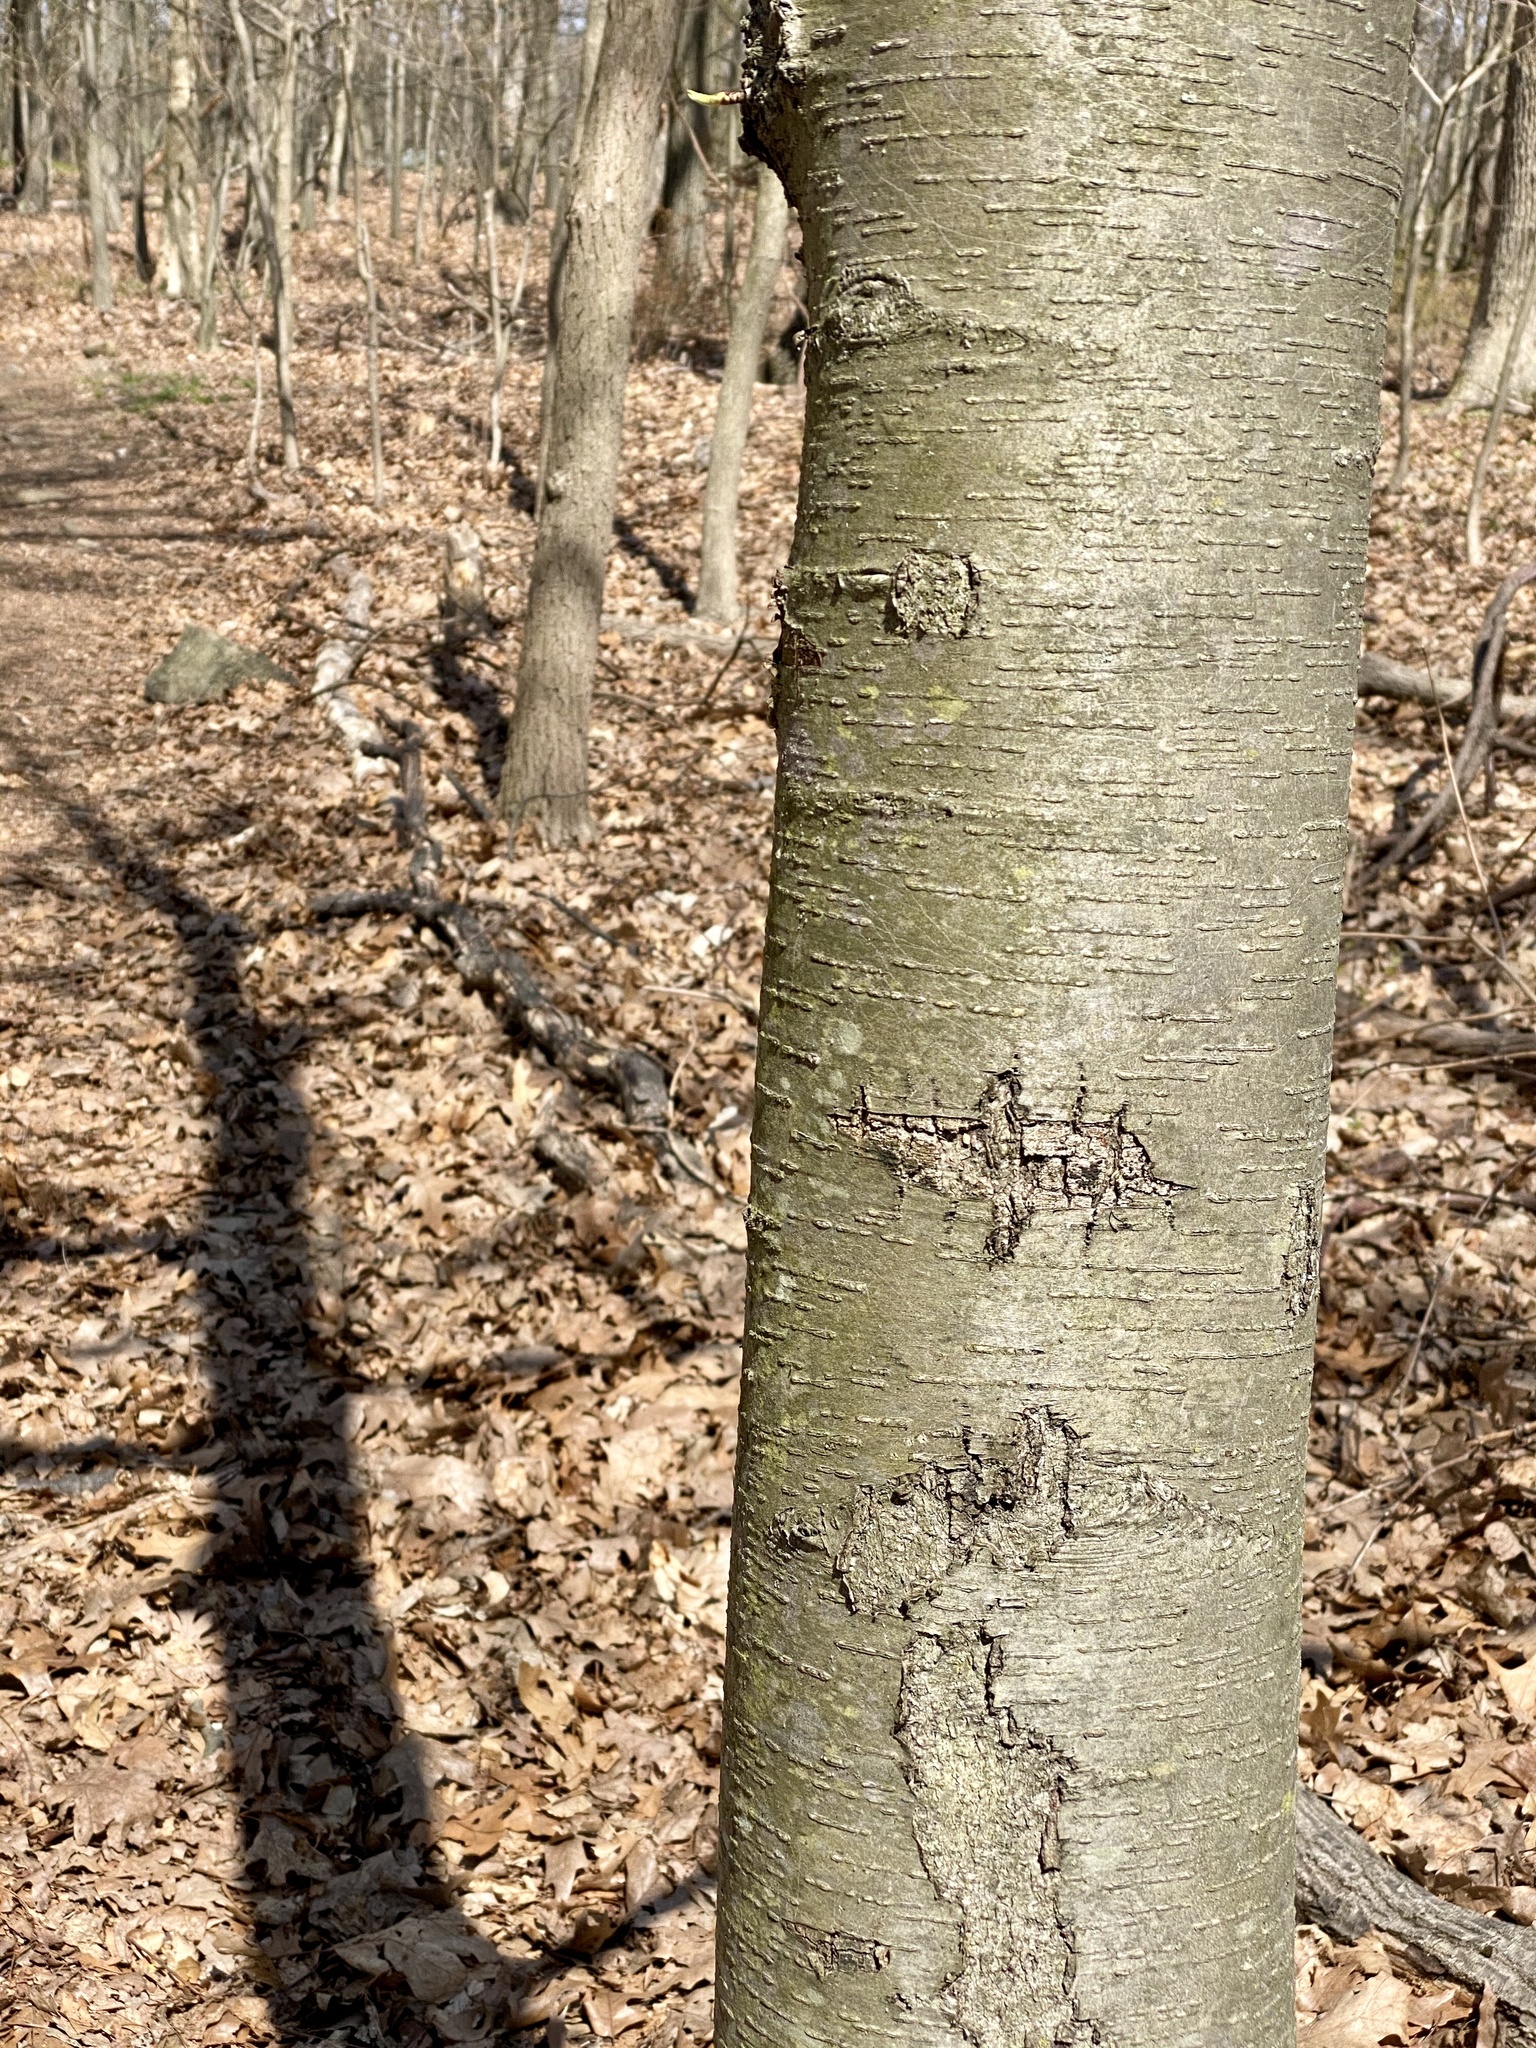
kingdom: Plantae
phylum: Tracheophyta
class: Magnoliopsida
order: Fagales
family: Betulaceae
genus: Betula
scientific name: Betula lenta
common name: Black birch
